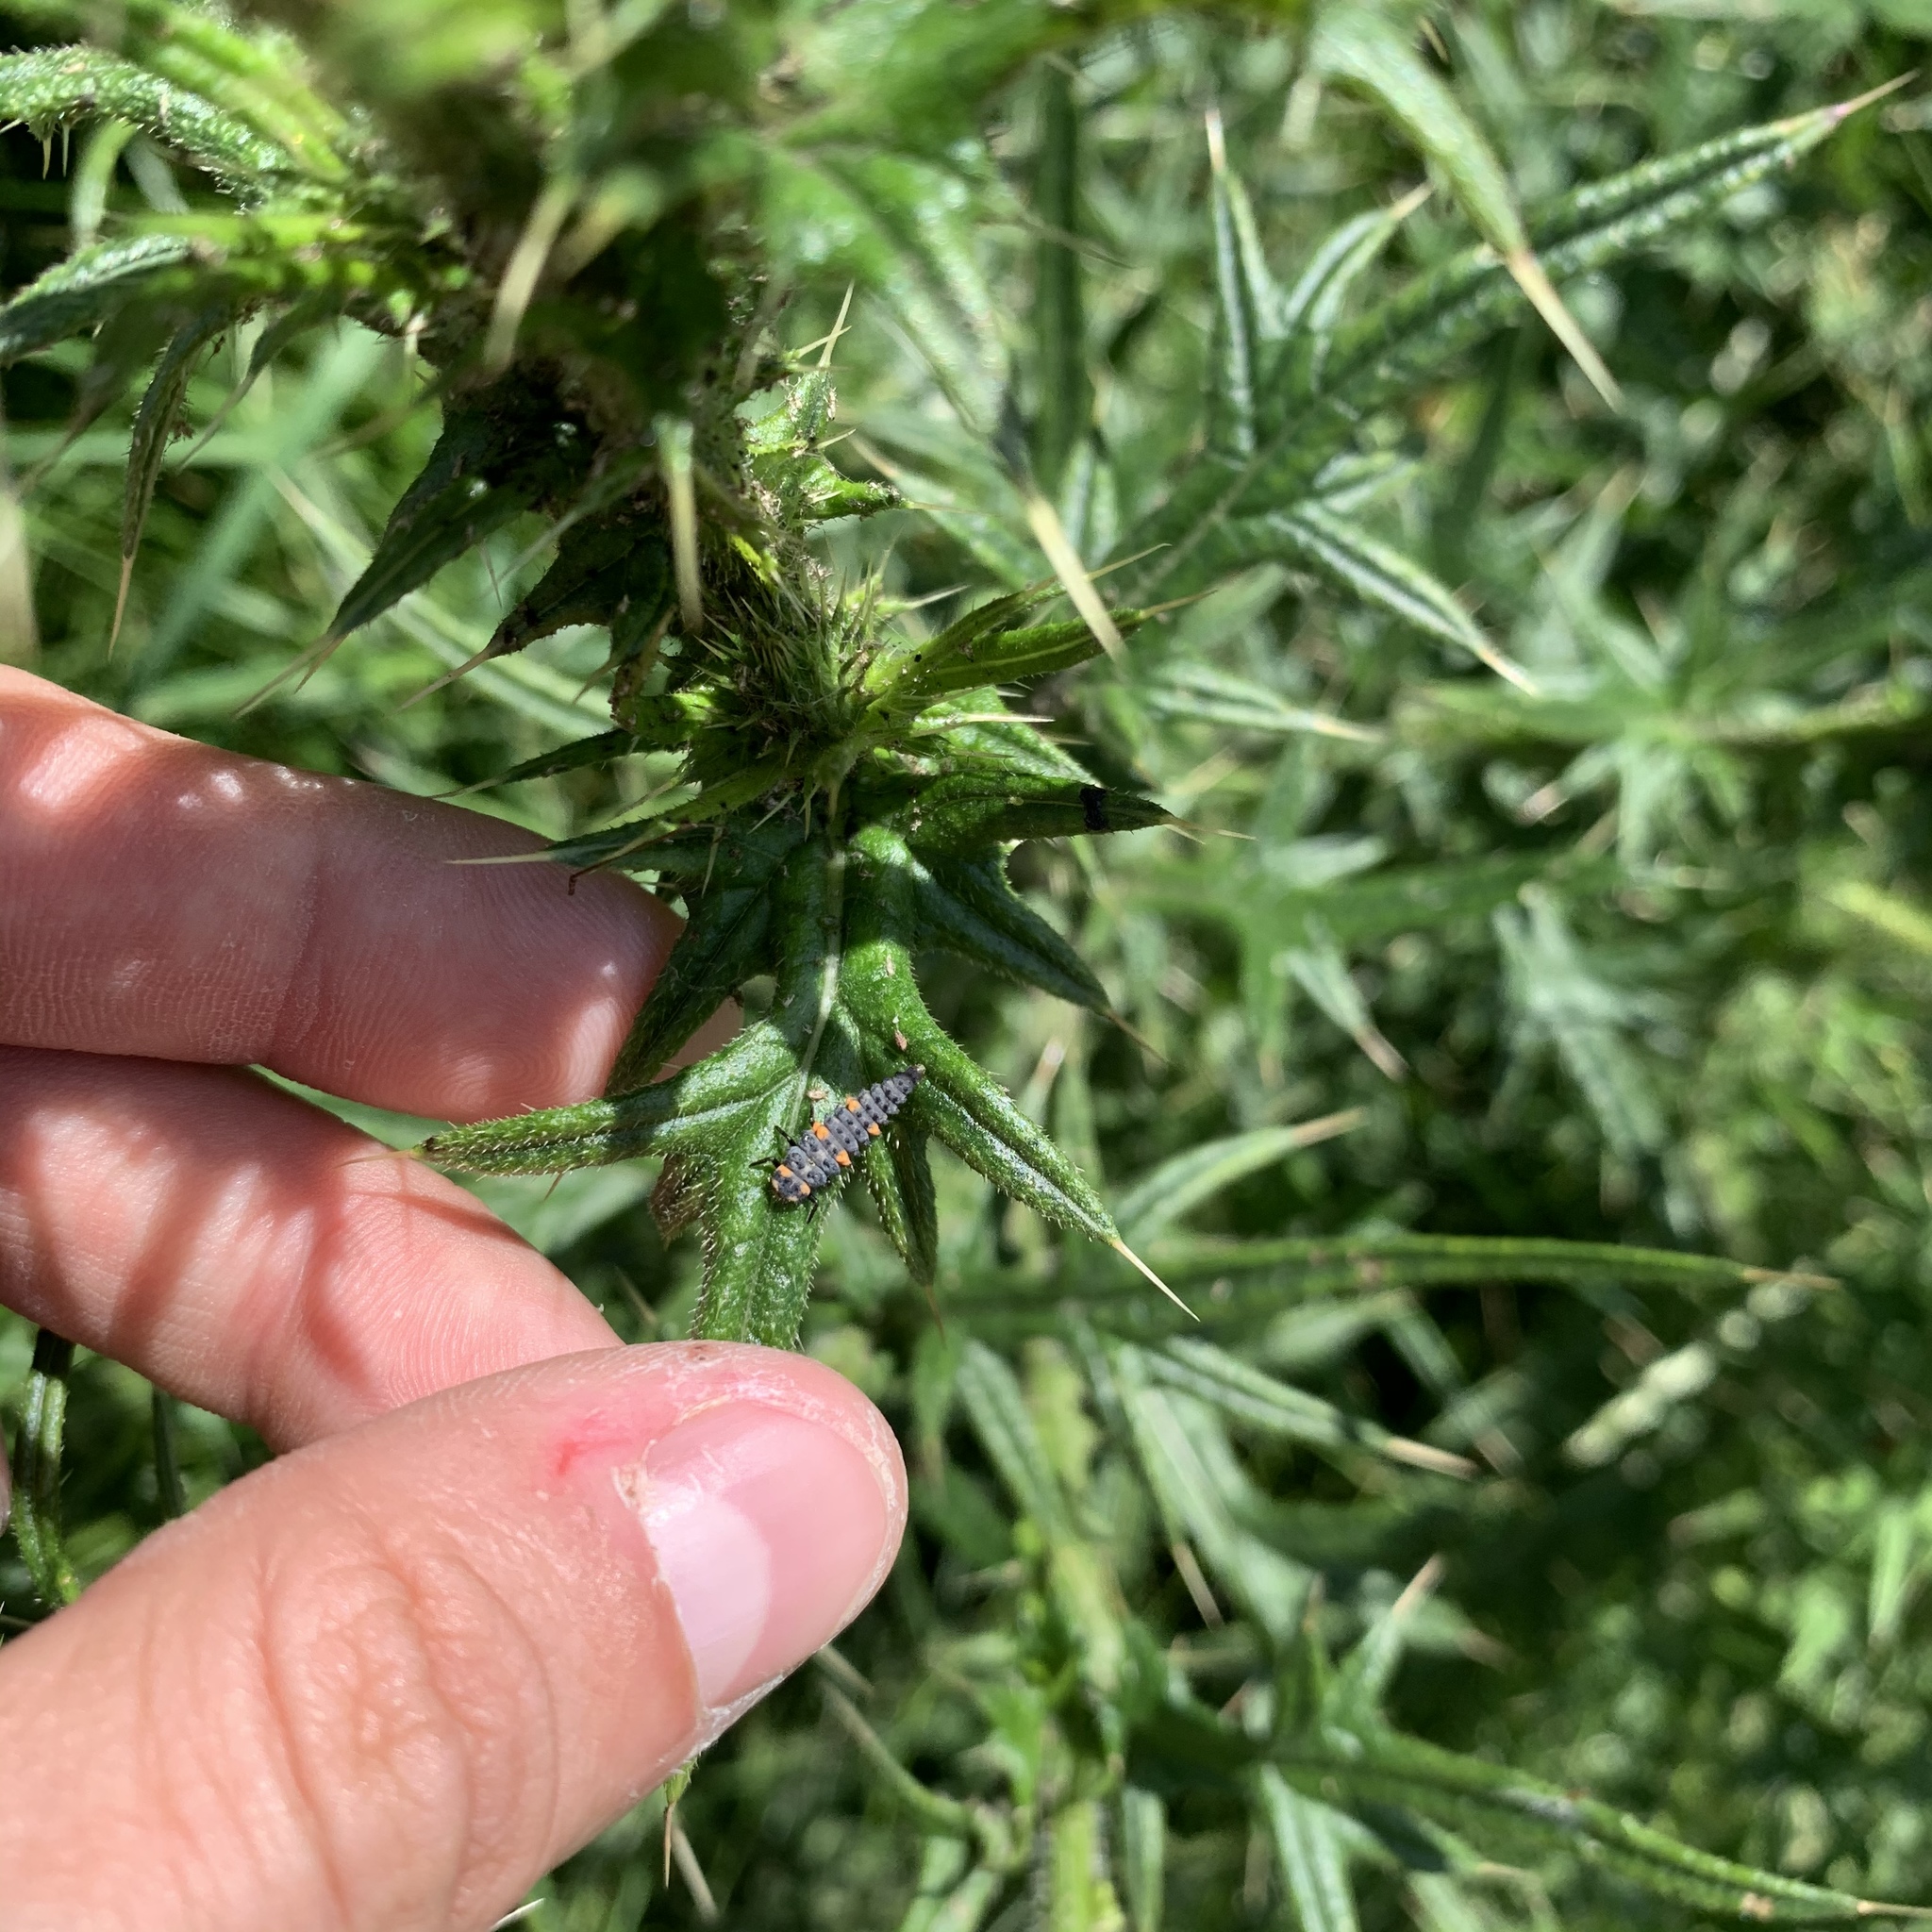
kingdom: Animalia
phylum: Arthropoda
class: Insecta
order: Coleoptera
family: Coccinellidae
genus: Coccinella
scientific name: Coccinella septempunctata
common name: Sevenspotted lady beetle
